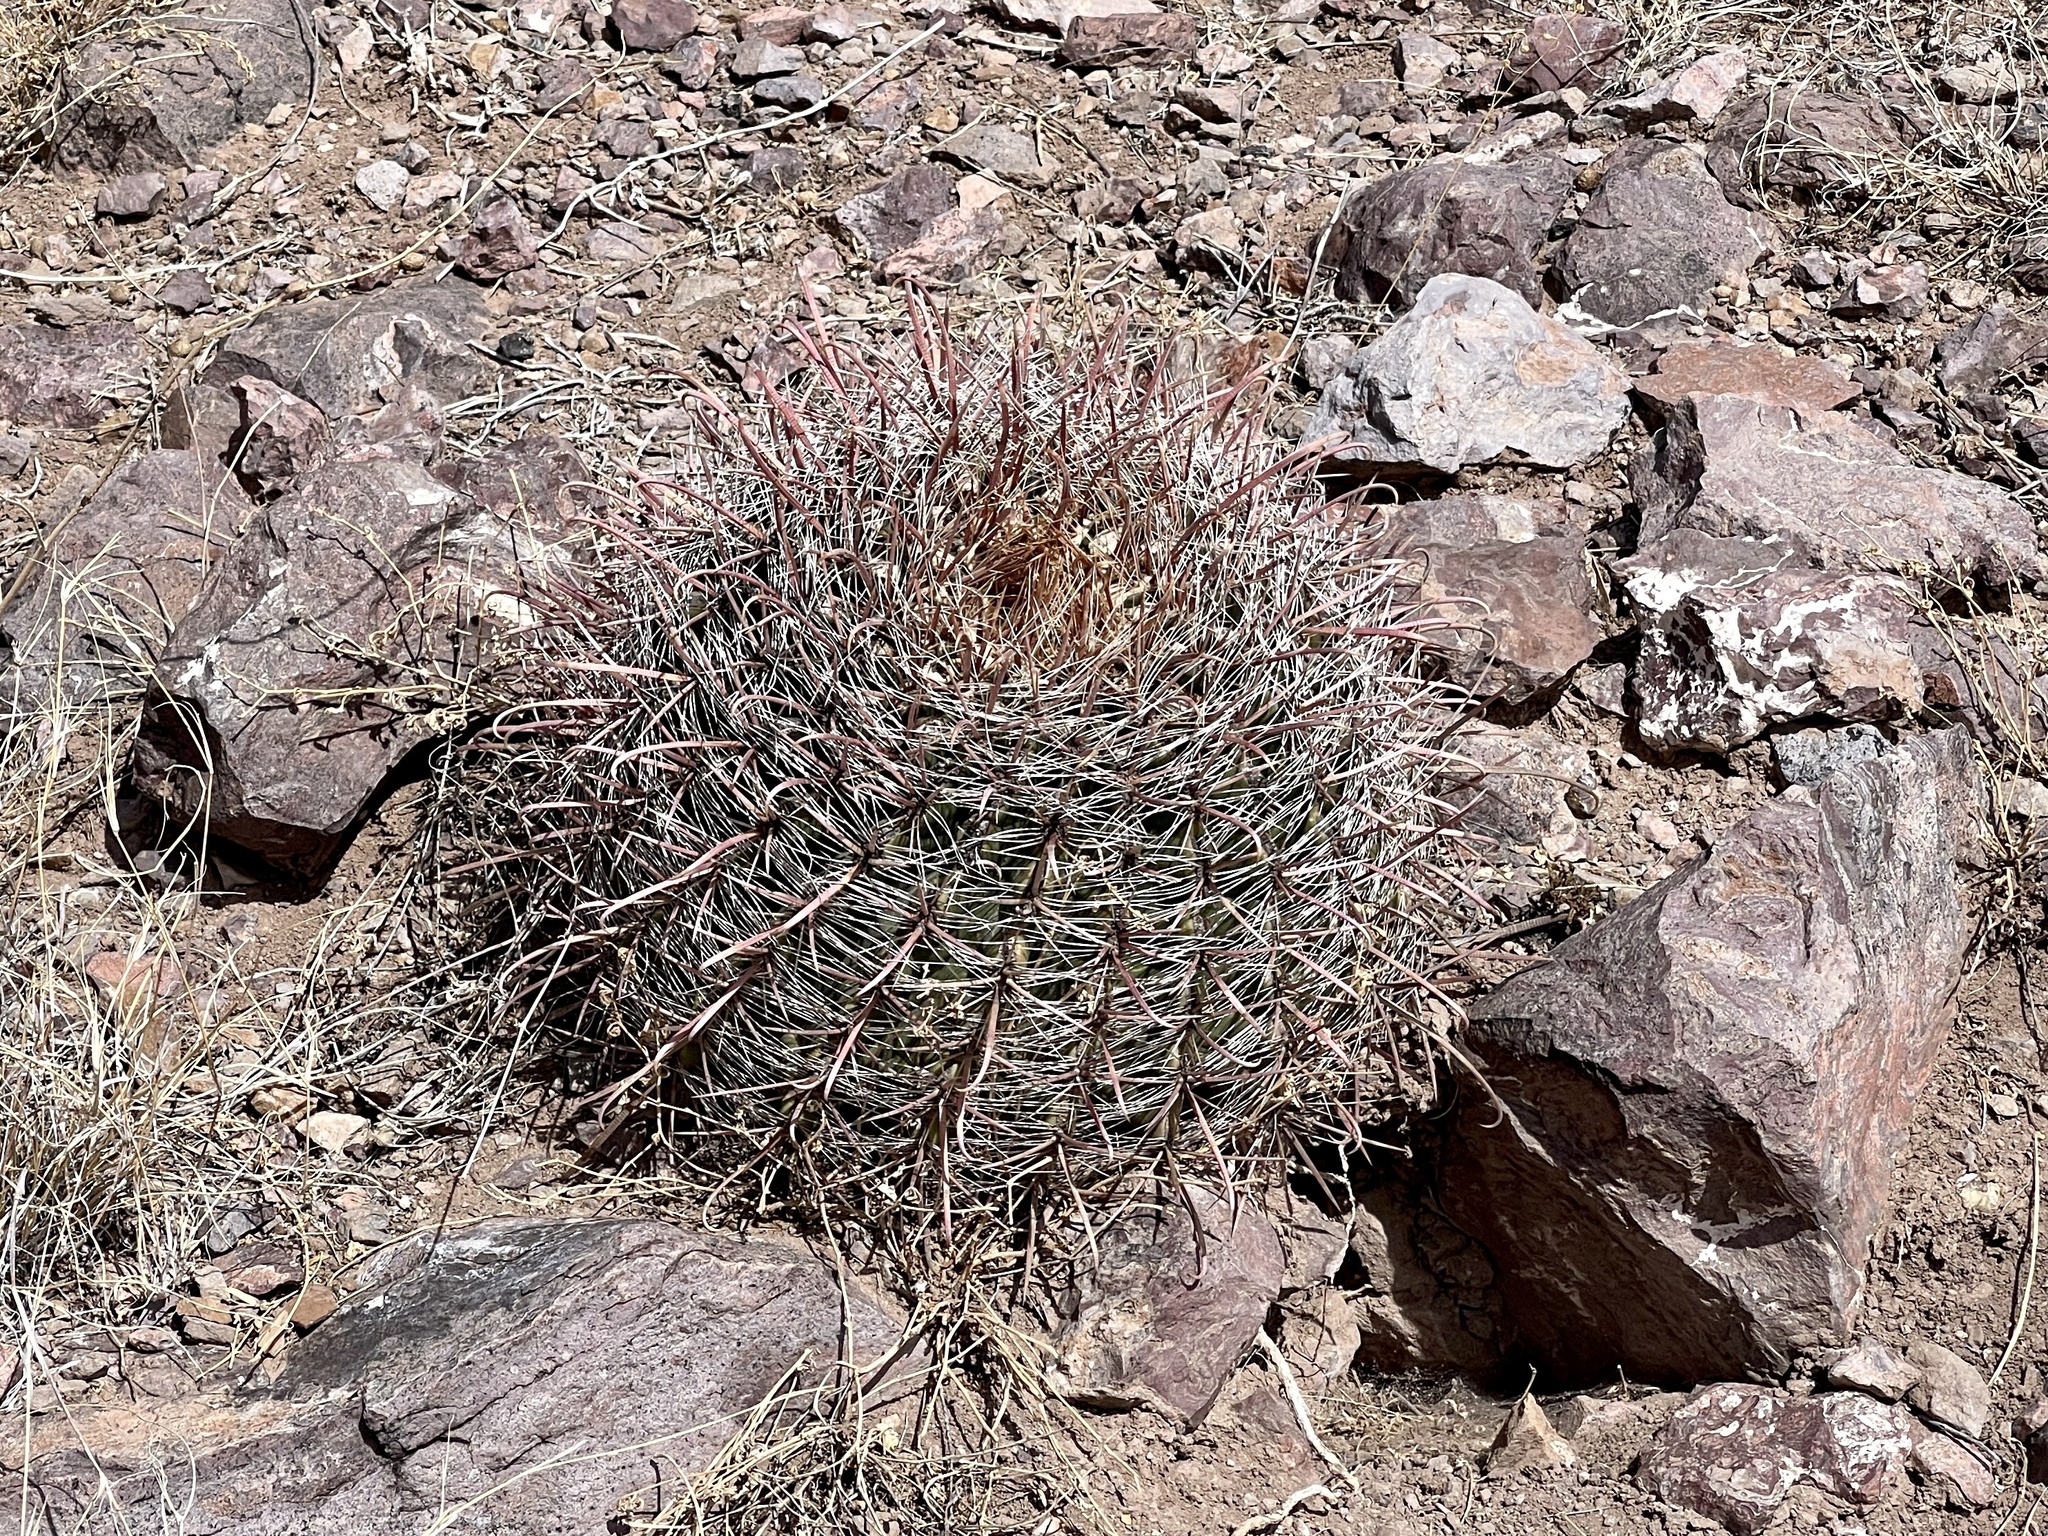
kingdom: Plantae
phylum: Tracheophyta
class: Magnoliopsida
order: Caryophyllales
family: Cactaceae
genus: Ferocactus
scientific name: Ferocactus wislizeni
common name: Candy barrel cactus
